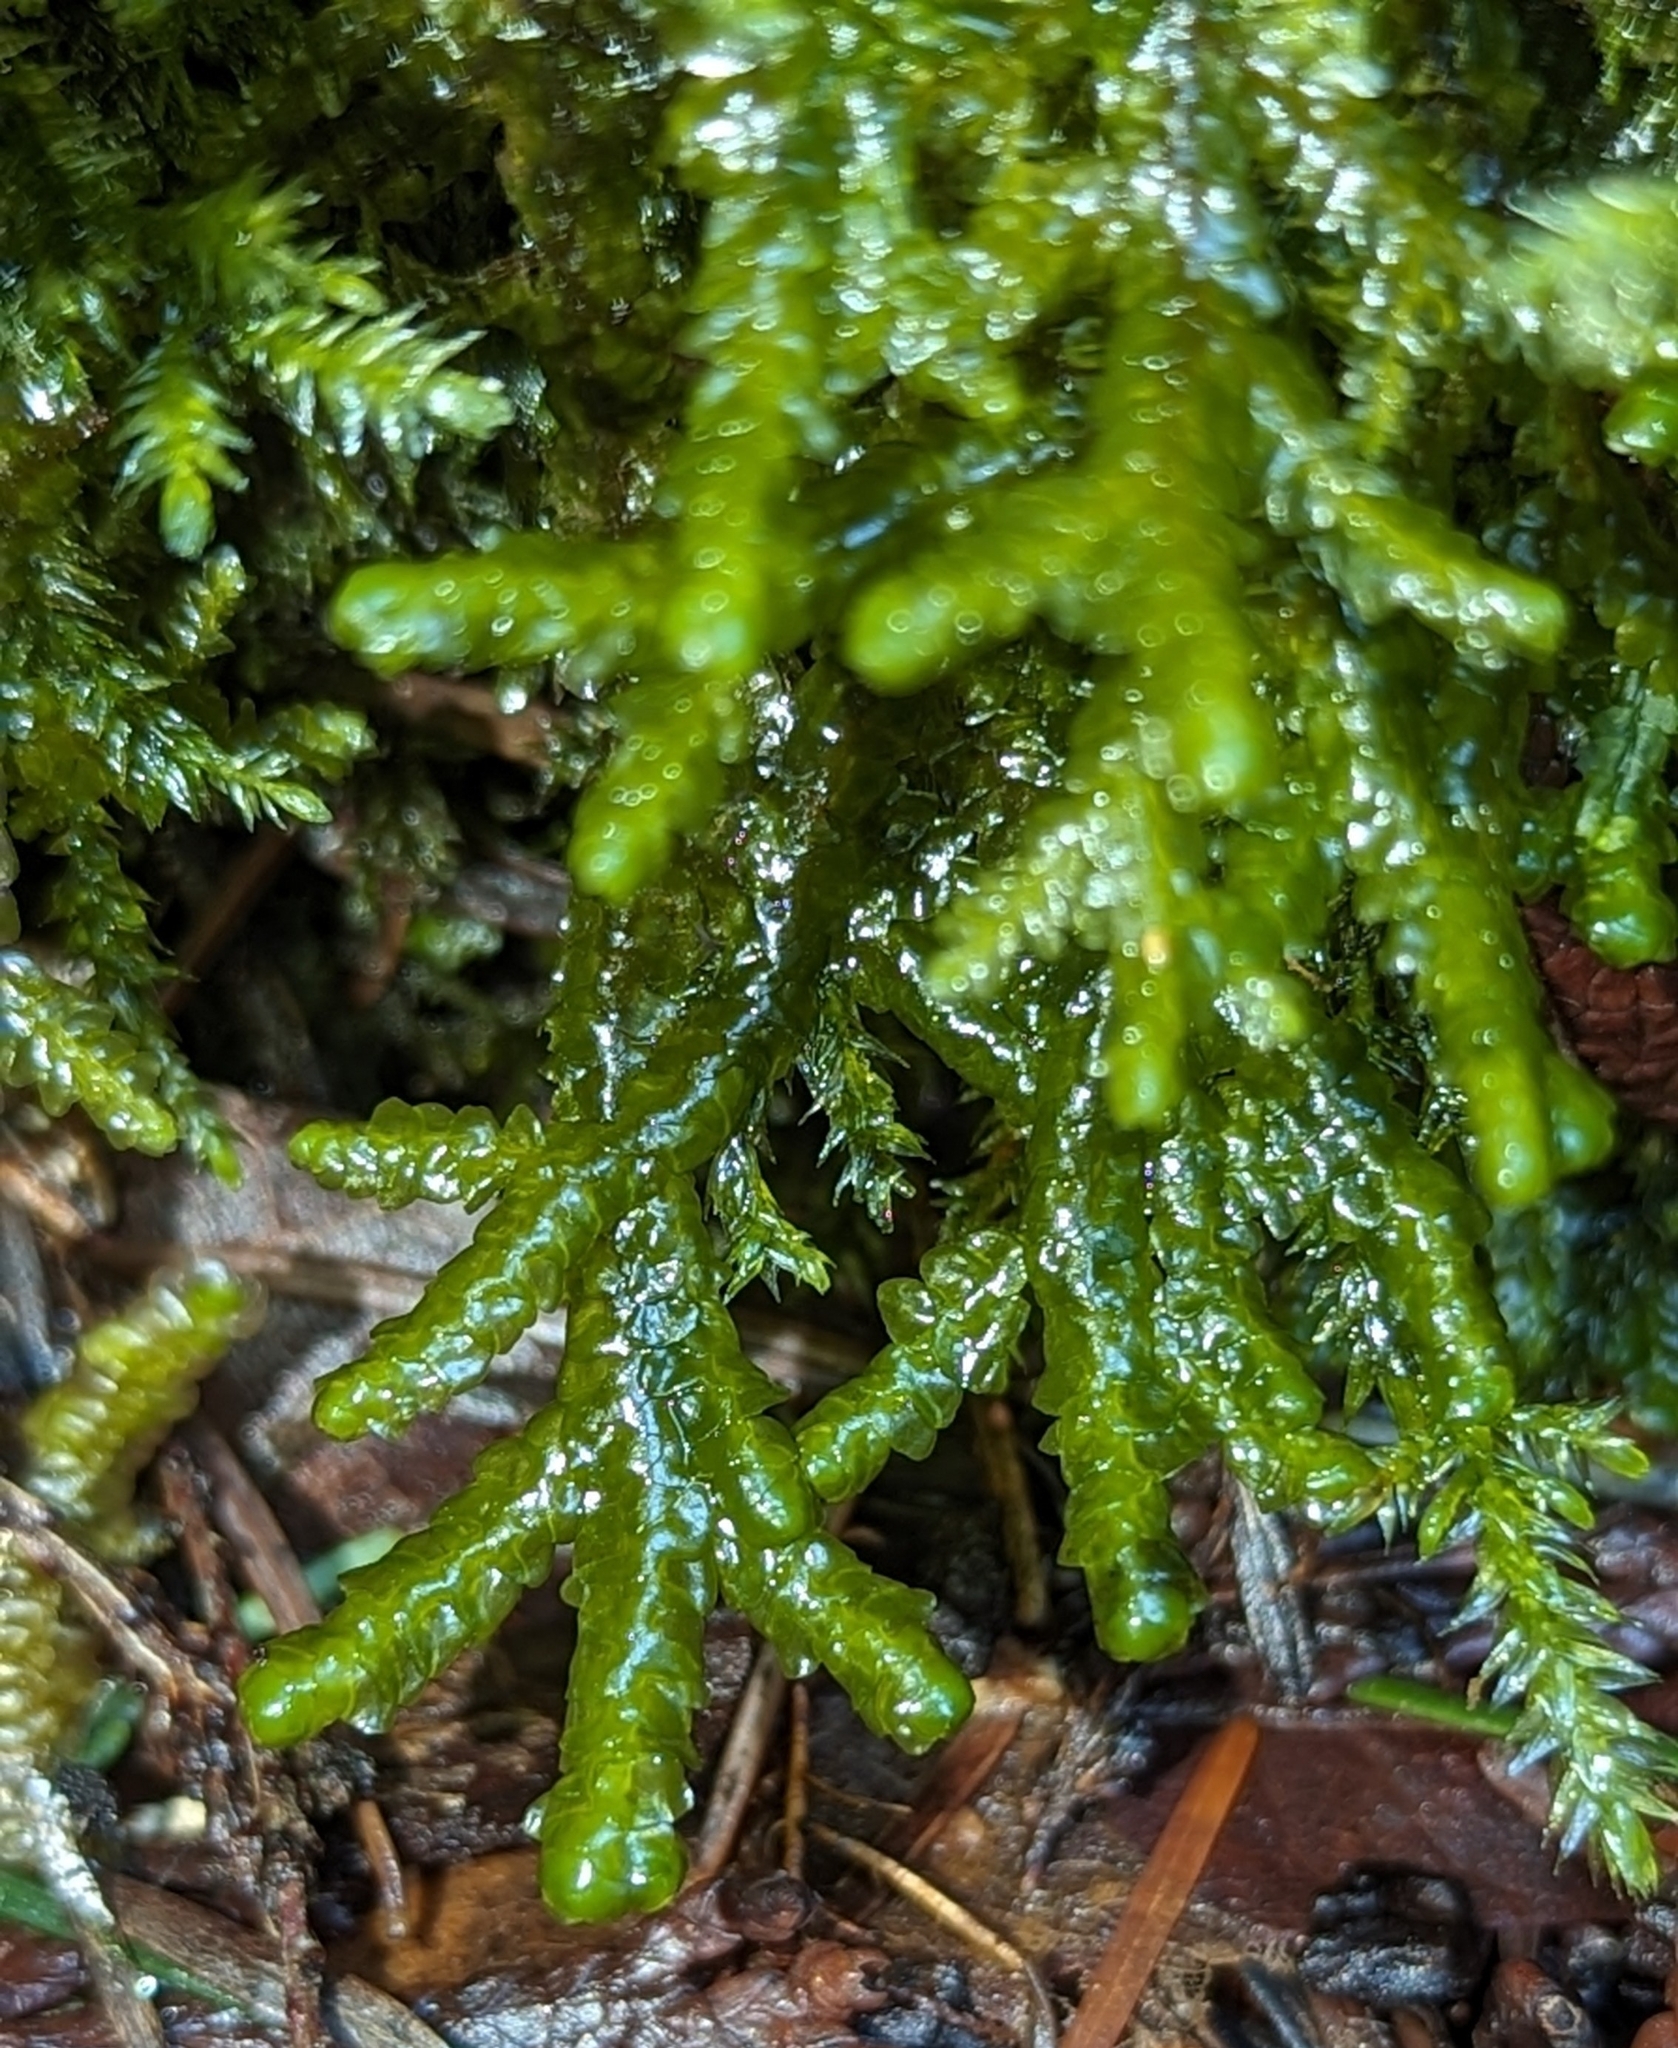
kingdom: Plantae
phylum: Marchantiophyta
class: Jungermanniopsida
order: Porellales
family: Porellaceae
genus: Porella
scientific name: Porella cordaeana
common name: Cliff scalewort
